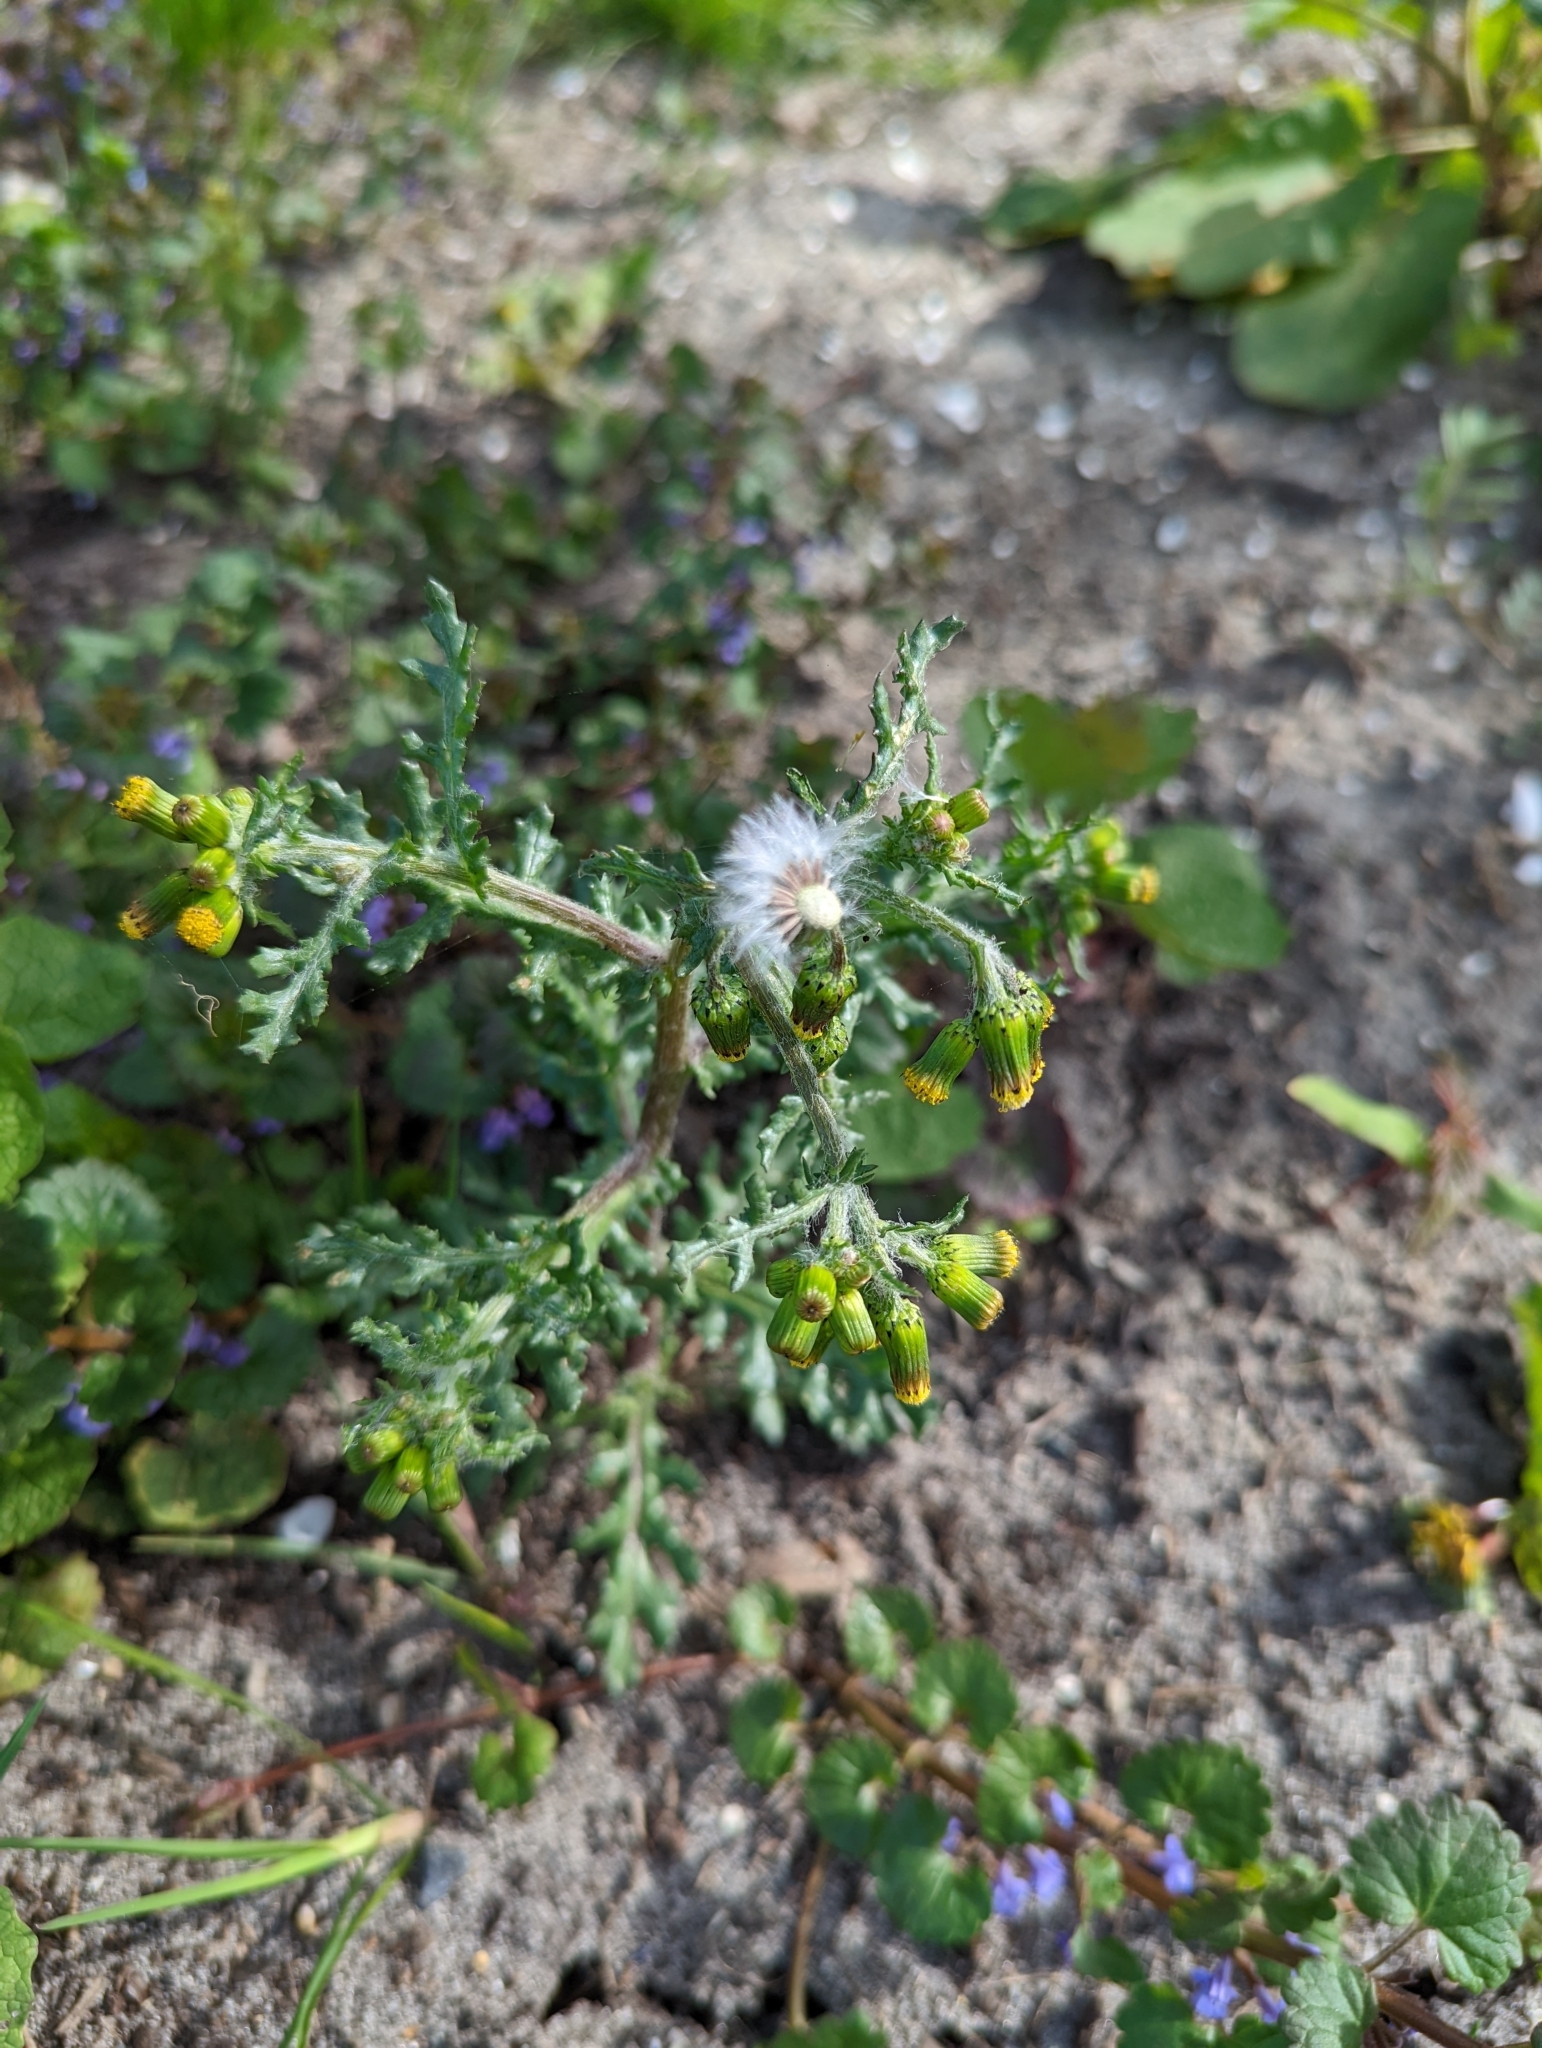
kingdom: Plantae
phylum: Tracheophyta
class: Magnoliopsida
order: Asterales
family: Asteraceae
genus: Senecio
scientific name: Senecio vulgaris
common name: Old-man-in-the-spring
